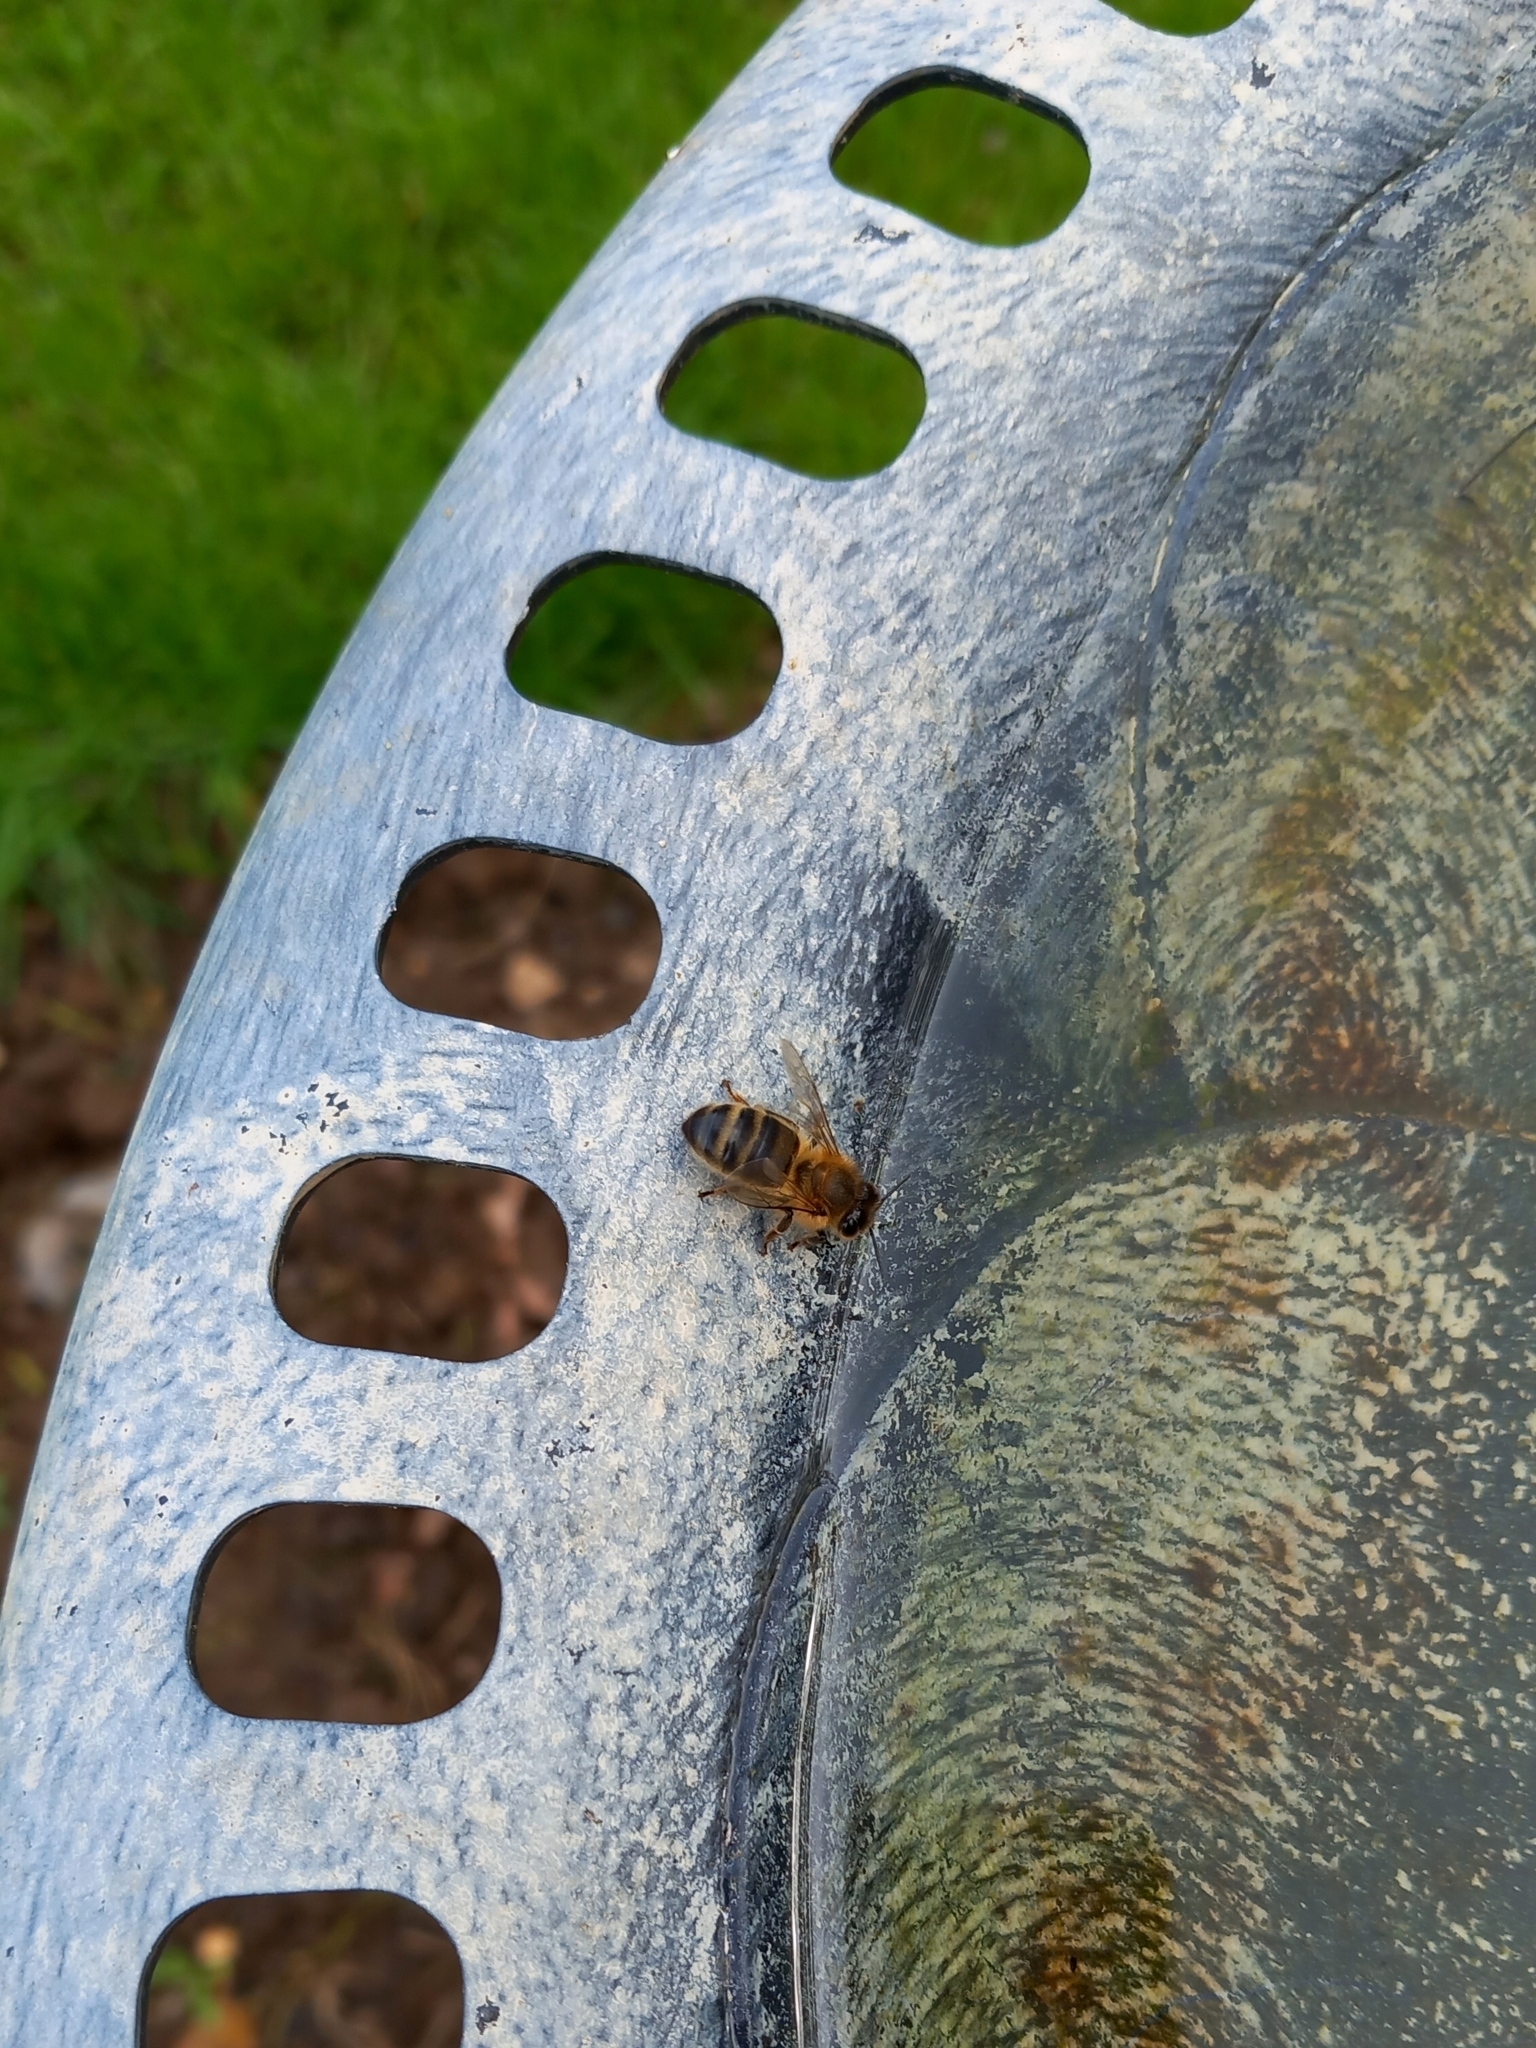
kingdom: Animalia
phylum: Arthropoda
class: Insecta
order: Hymenoptera
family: Apidae
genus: Apis
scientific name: Apis mellifera
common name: Honey bee
